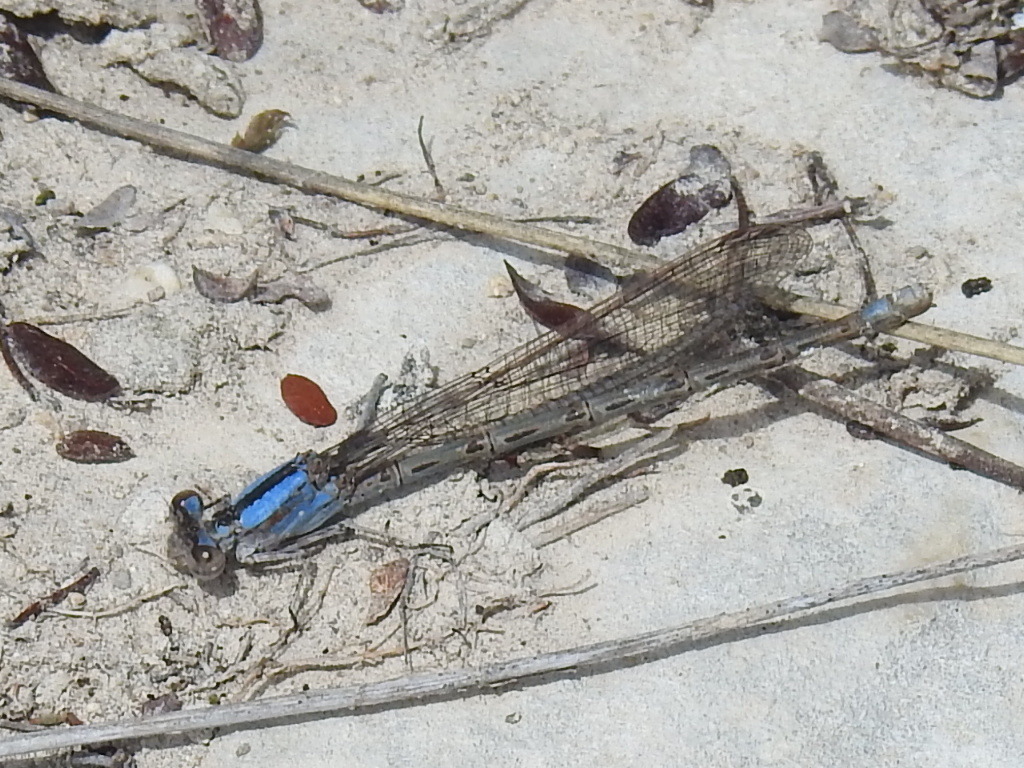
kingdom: Animalia
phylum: Arthropoda
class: Insecta
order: Odonata
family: Coenagrionidae
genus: Argia
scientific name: Argia immunda
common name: Kiowa dancer
